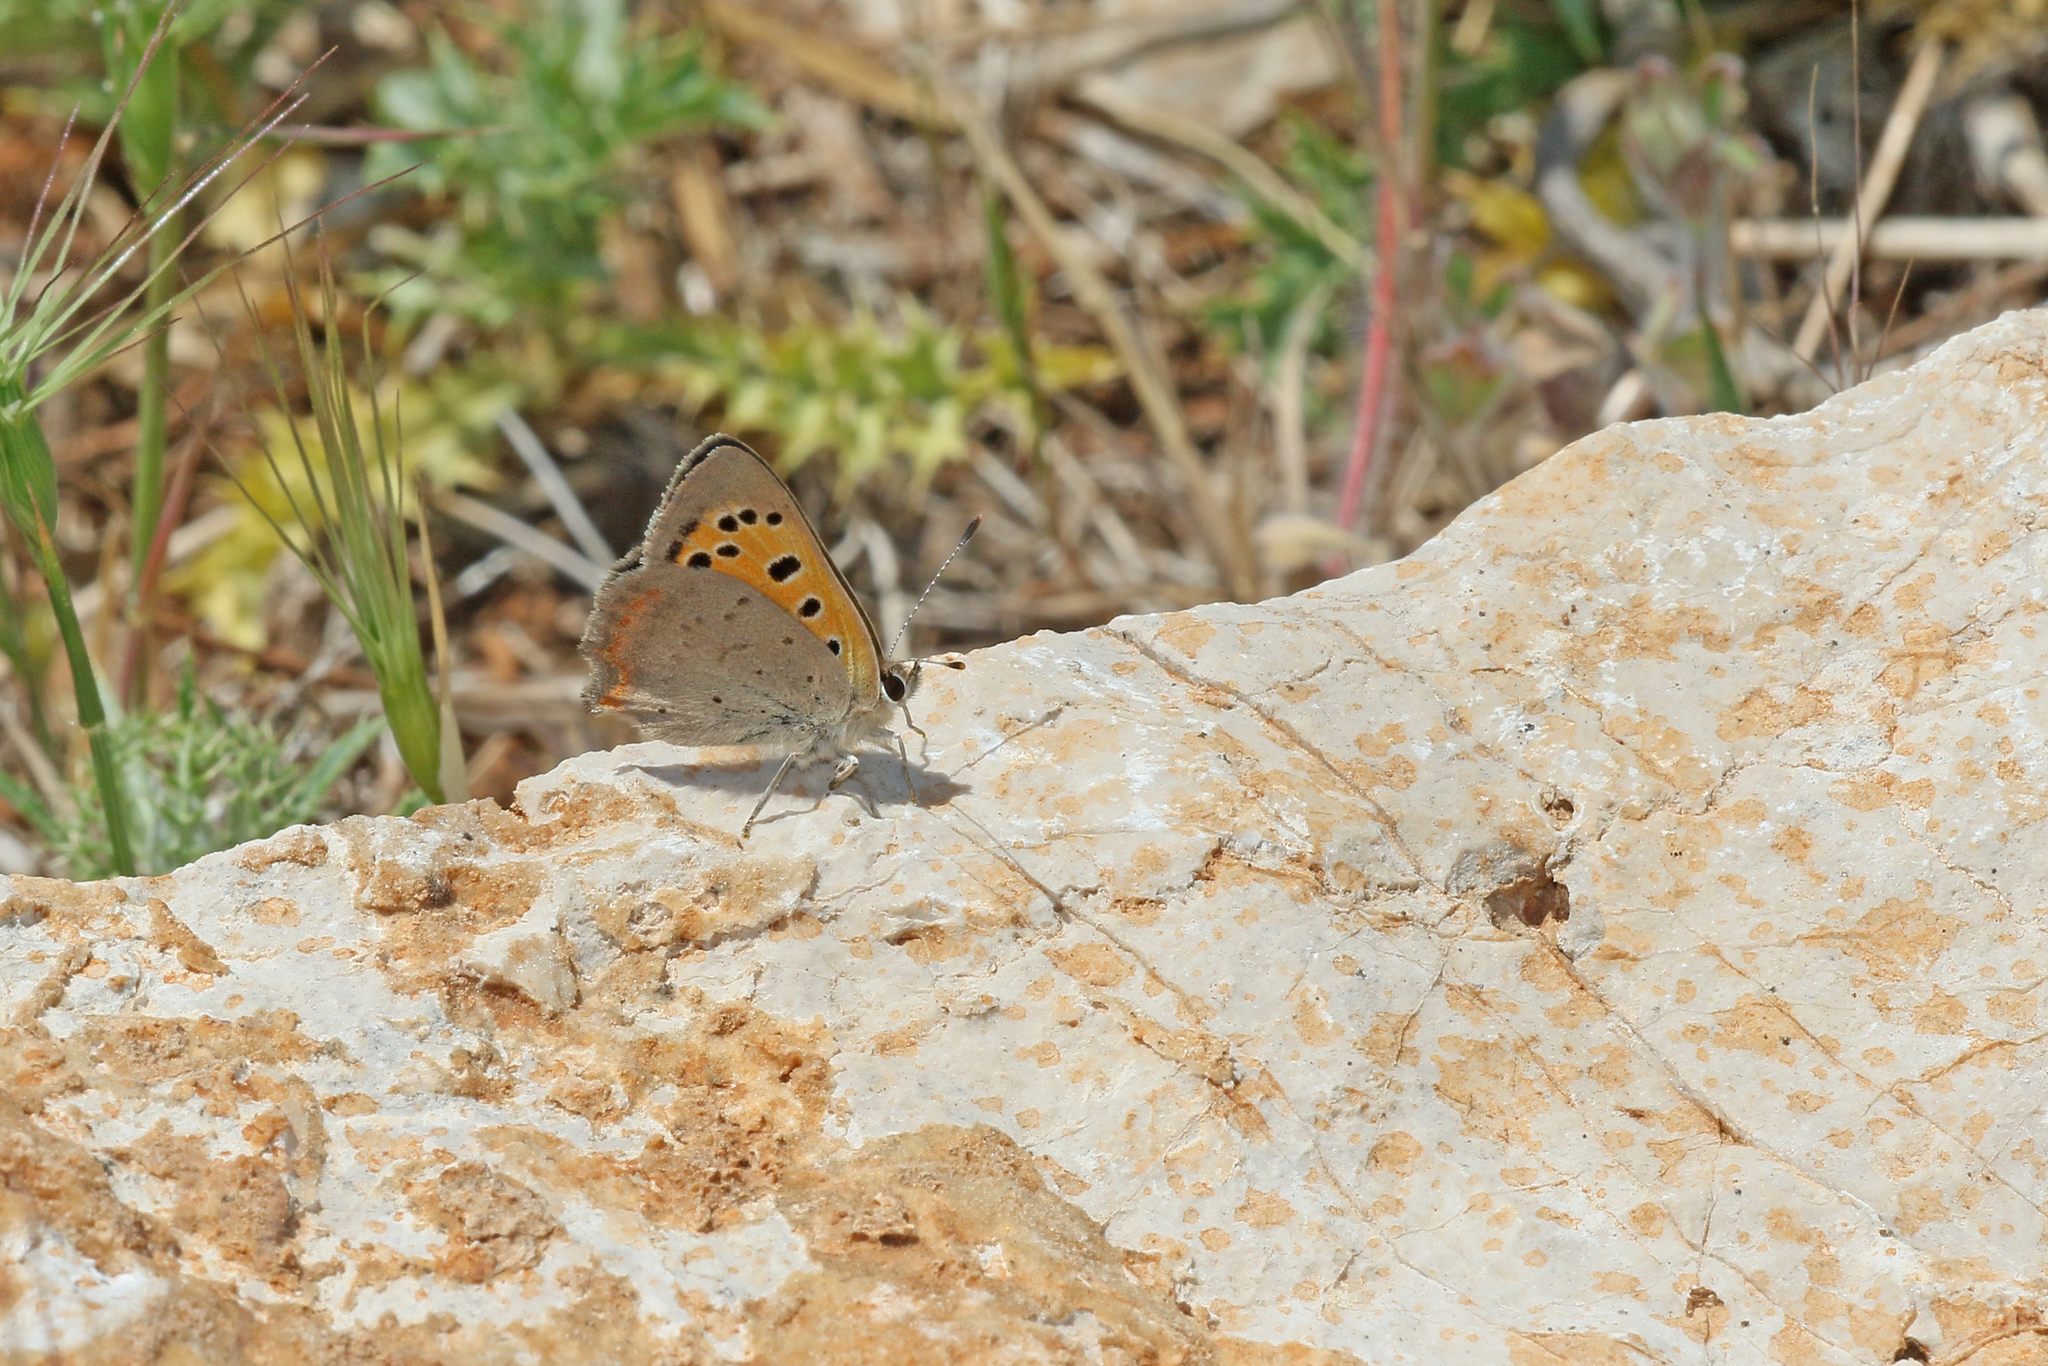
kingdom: Animalia
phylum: Arthropoda
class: Insecta
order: Lepidoptera
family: Lycaenidae
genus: Lycaena
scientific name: Lycaena phlaeas
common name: Small copper
